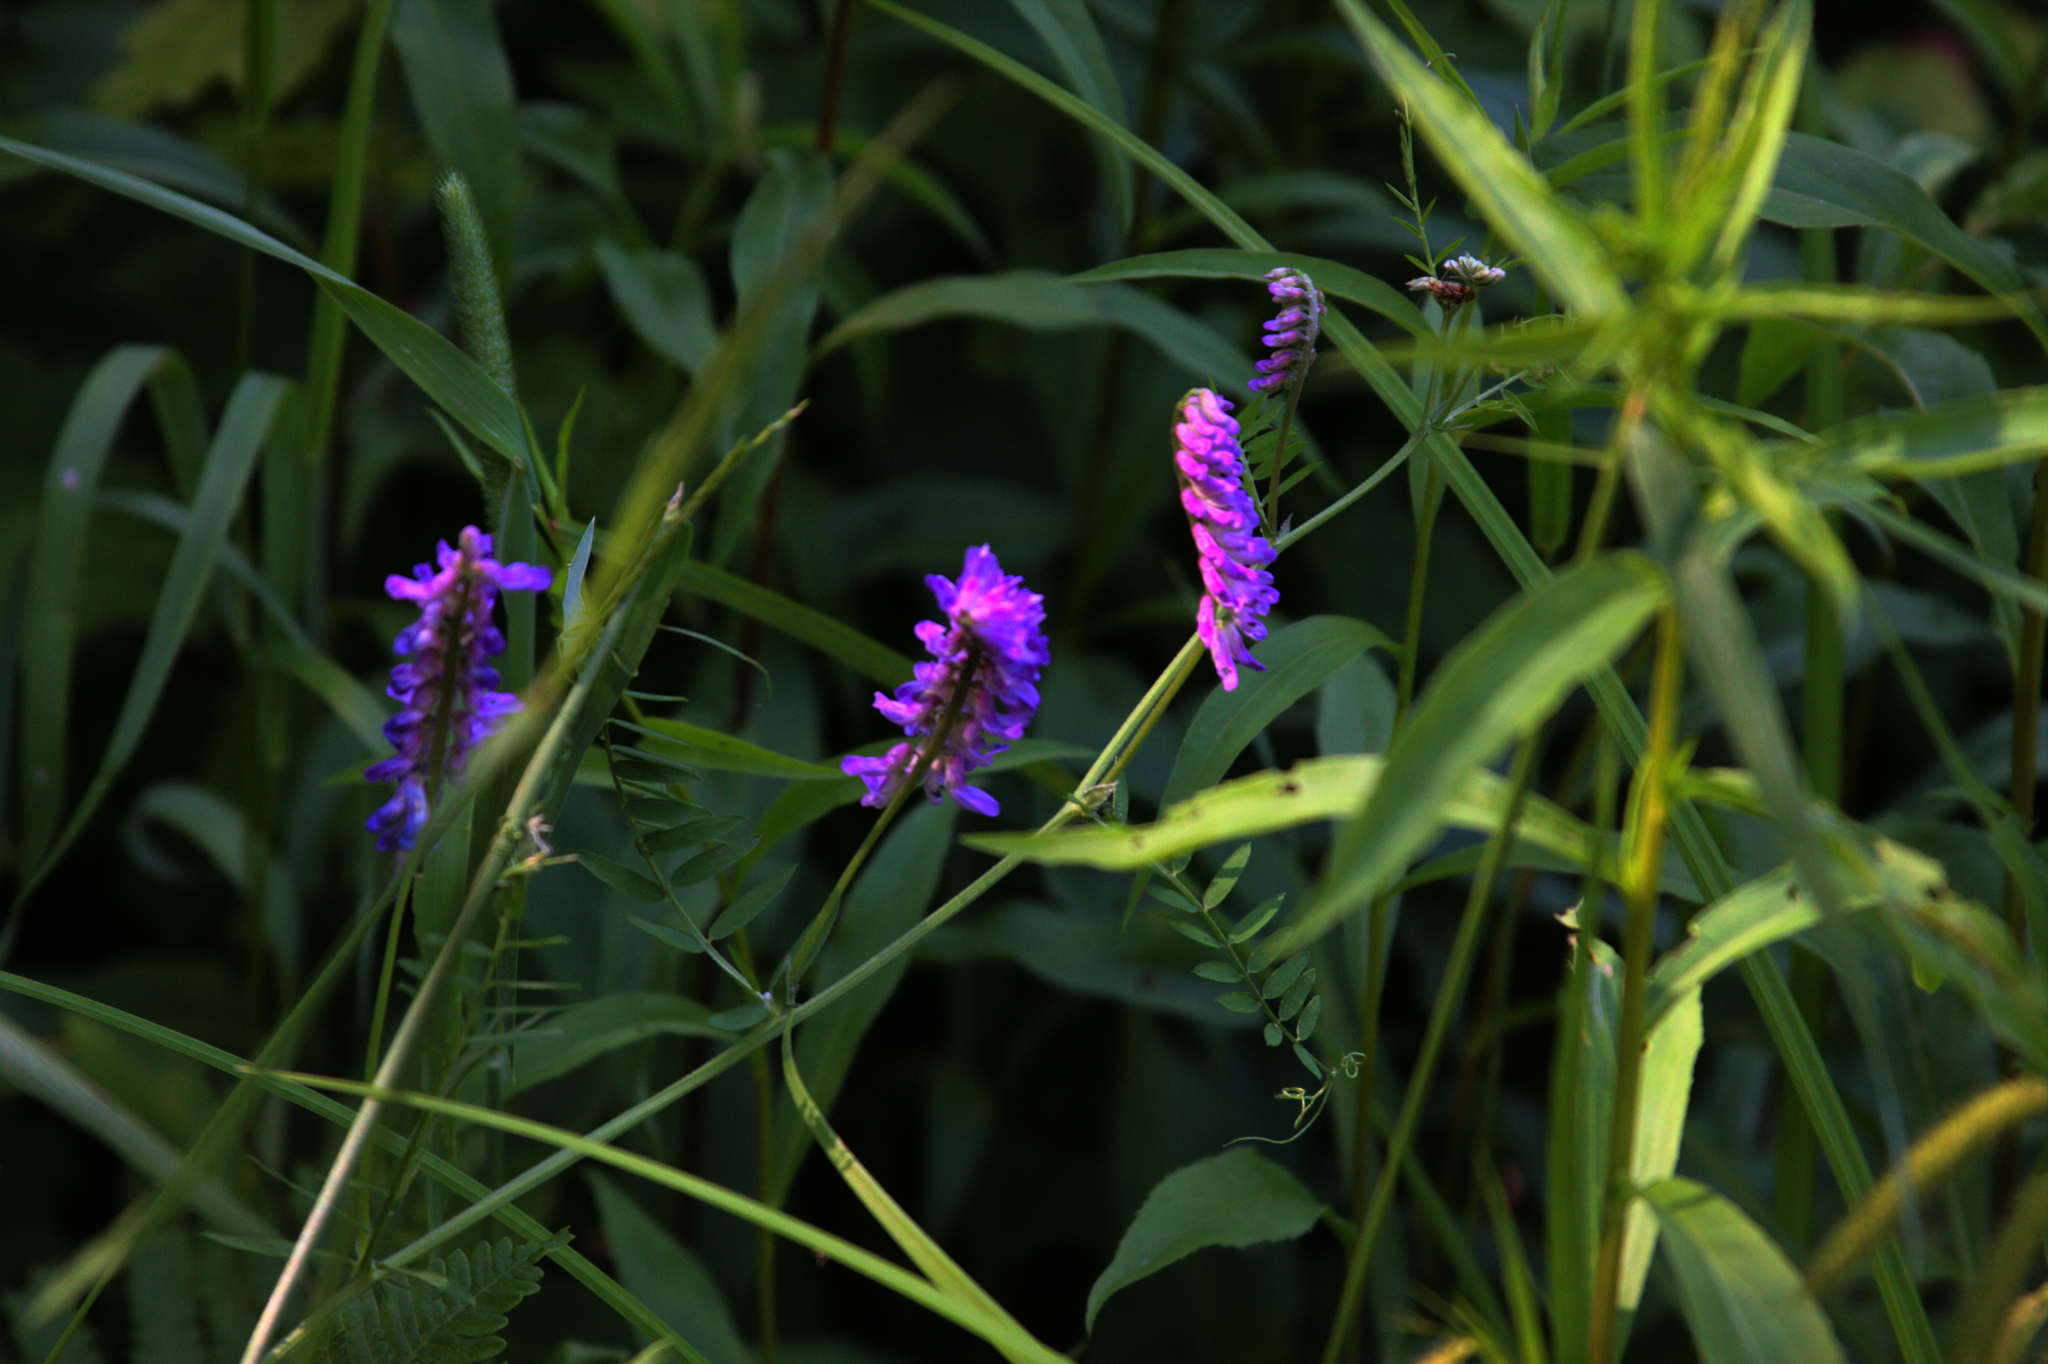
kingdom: Plantae
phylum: Tracheophyta
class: Magnoliopsida
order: Fabales
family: Fabaceae
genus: Vicia
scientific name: Vicia cracca
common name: Bird vetch
